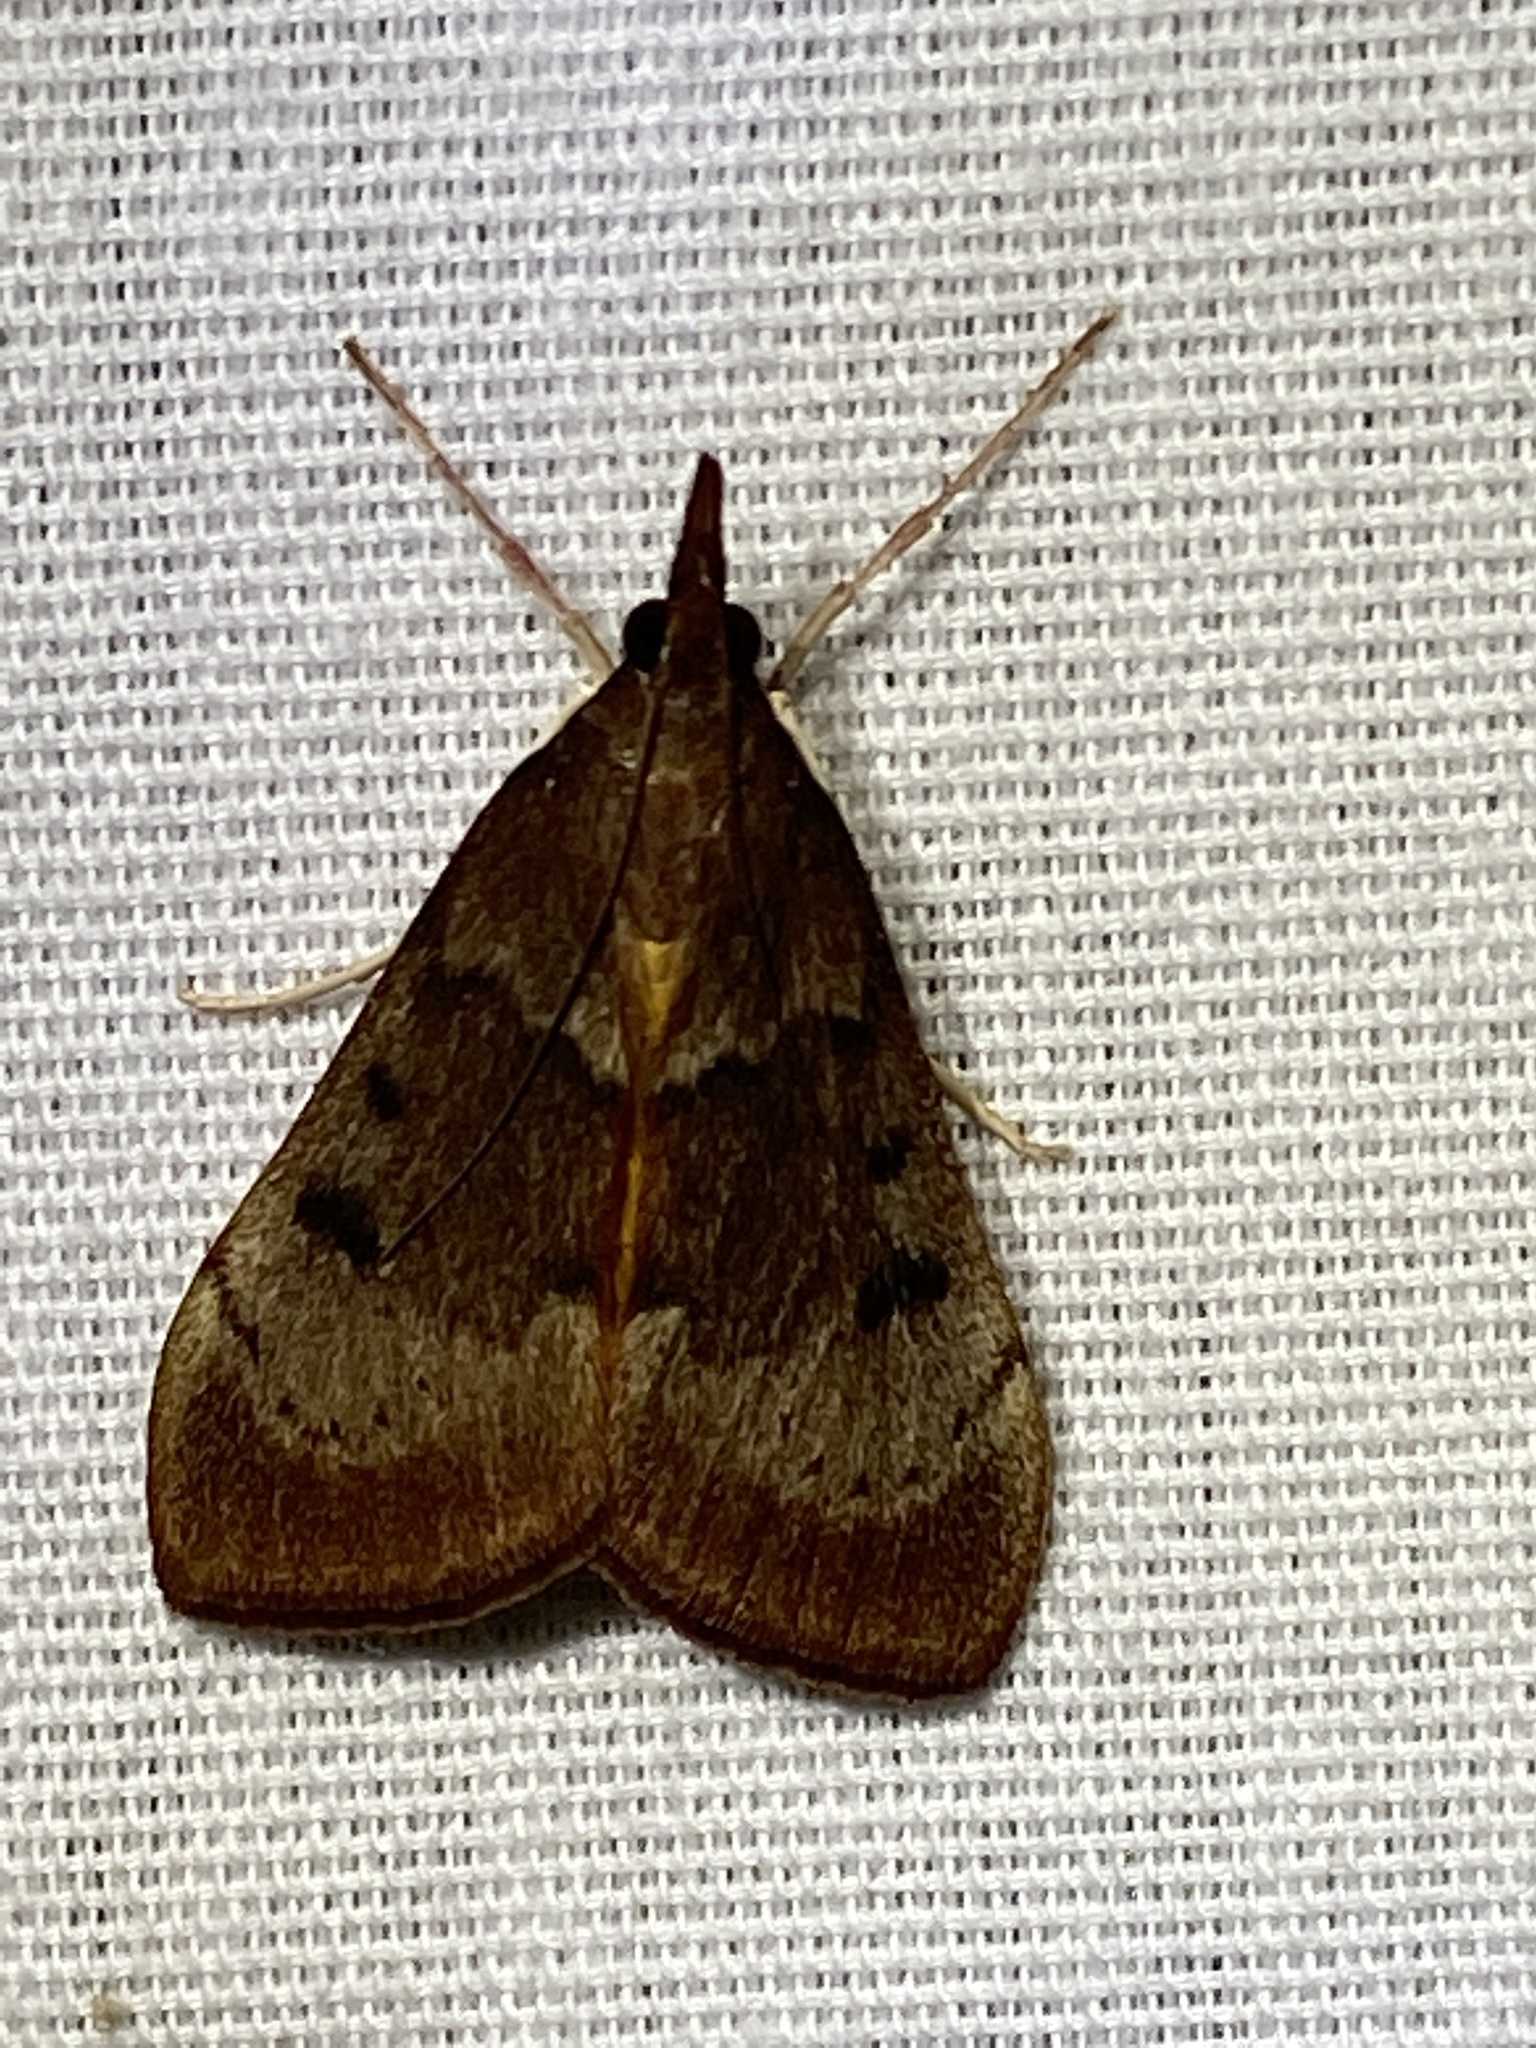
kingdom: Animalia
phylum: Arthropoda
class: Insecta
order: Lepidoptera
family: Crambidae
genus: Uresiphita
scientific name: Uresiphita reversalis
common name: Genista broom moth
